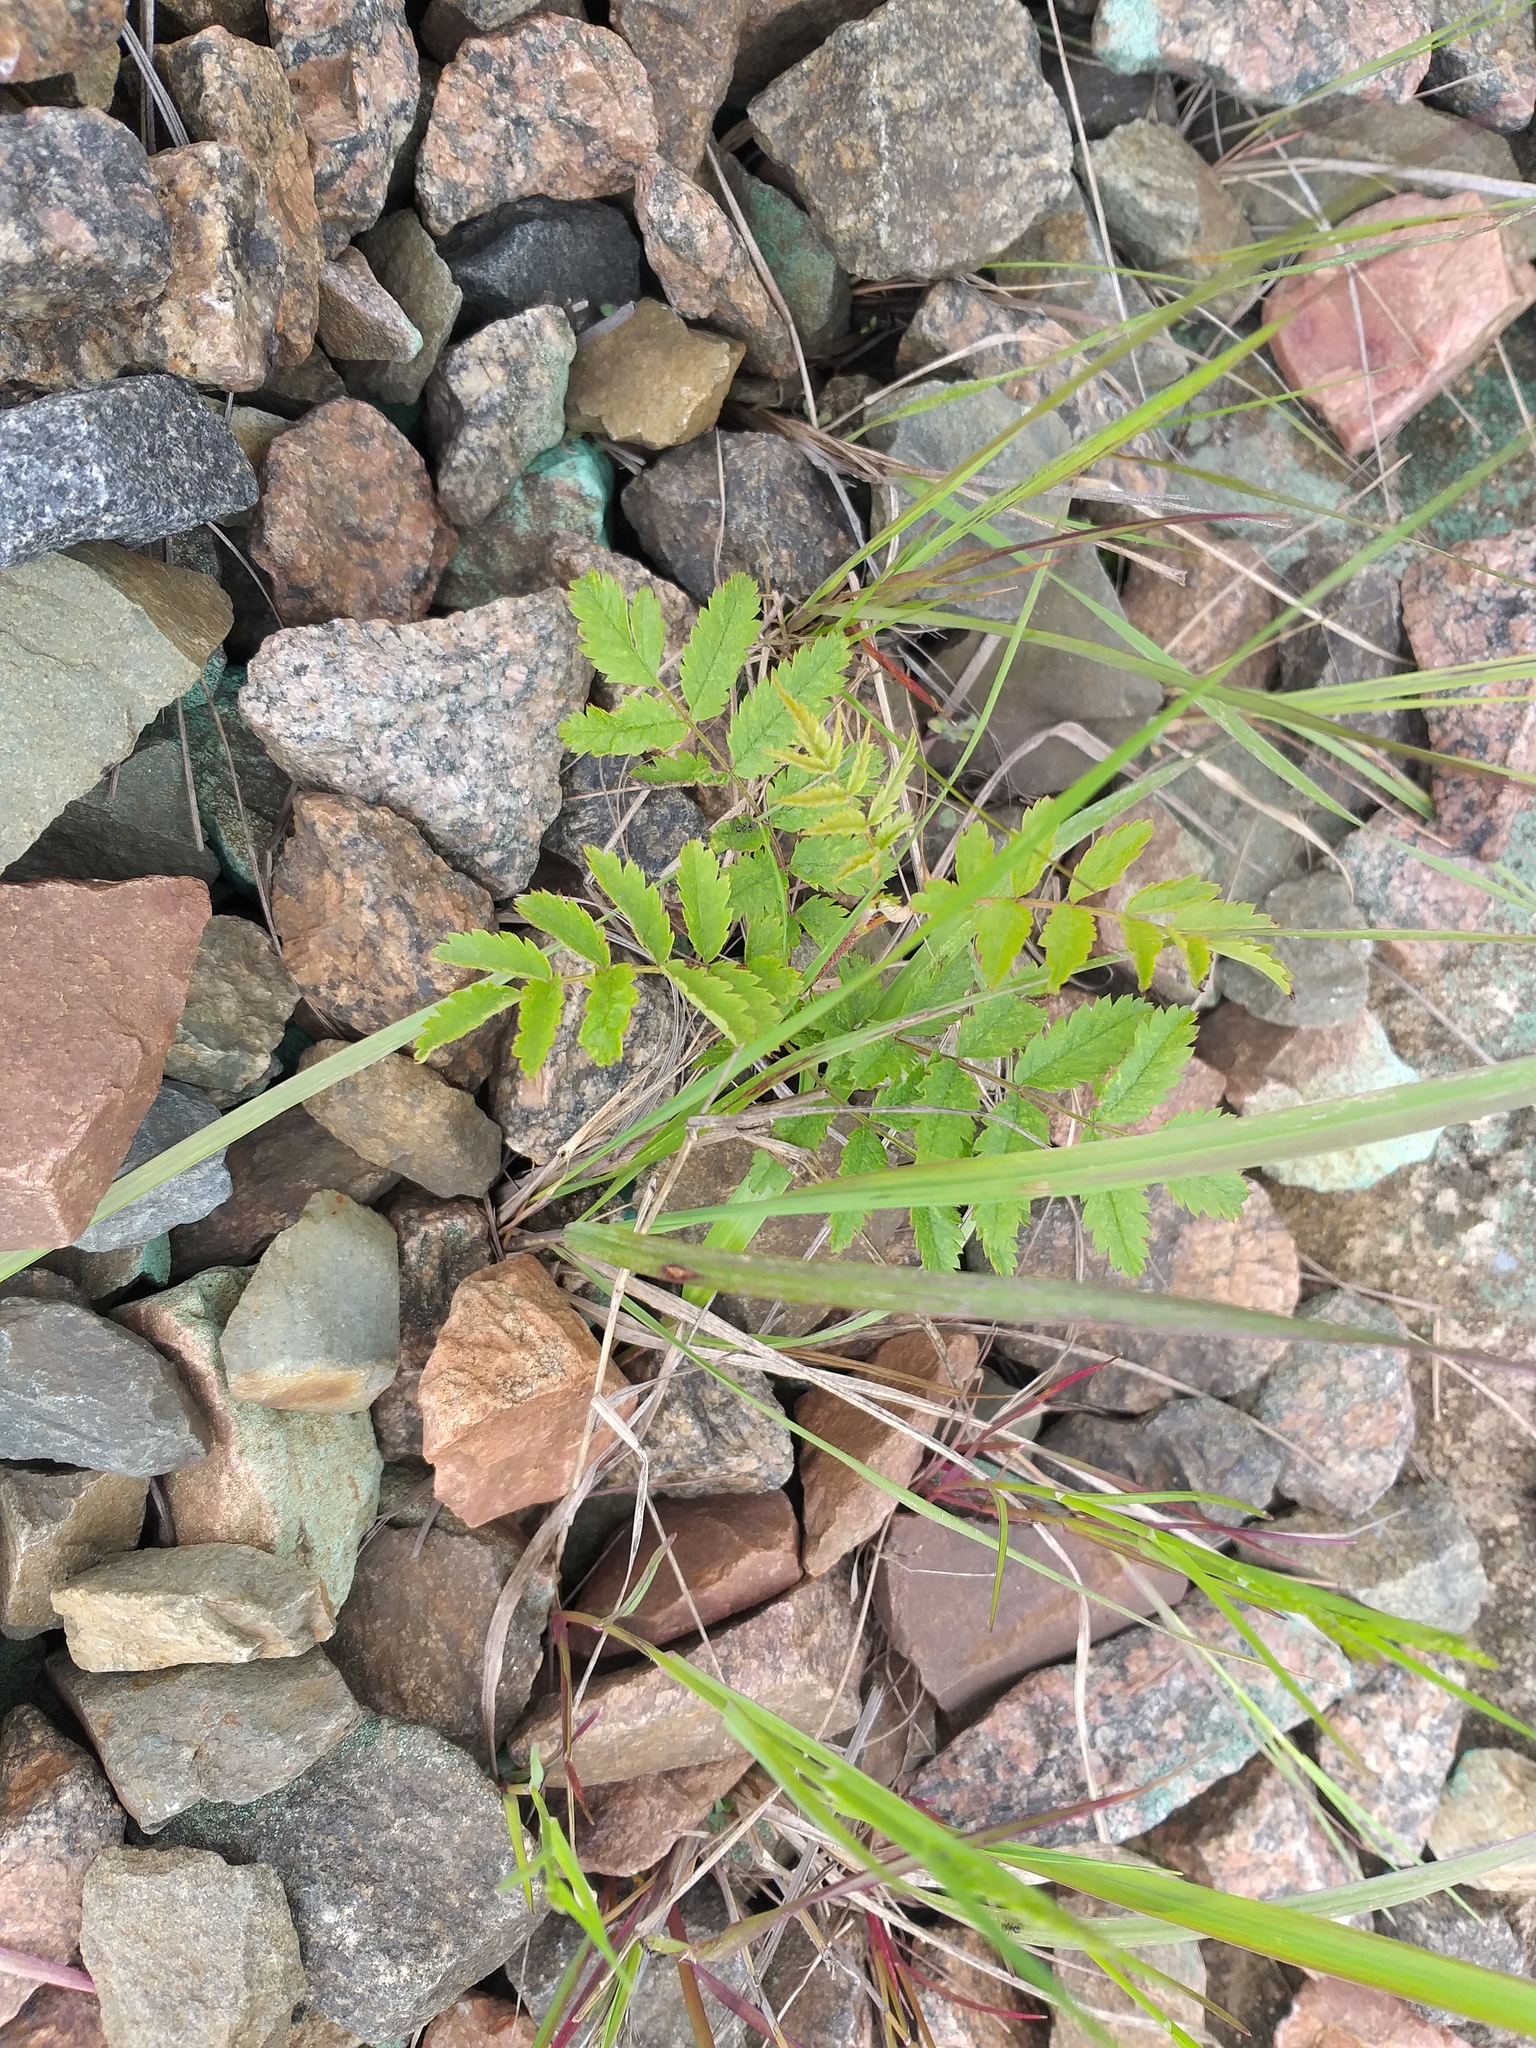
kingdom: Plantae
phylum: Tracheophyta
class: Magnoliopsida
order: Rosales
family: Rosaceae
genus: Sorbus
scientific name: Sorbus aucuparia
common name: Rowan
